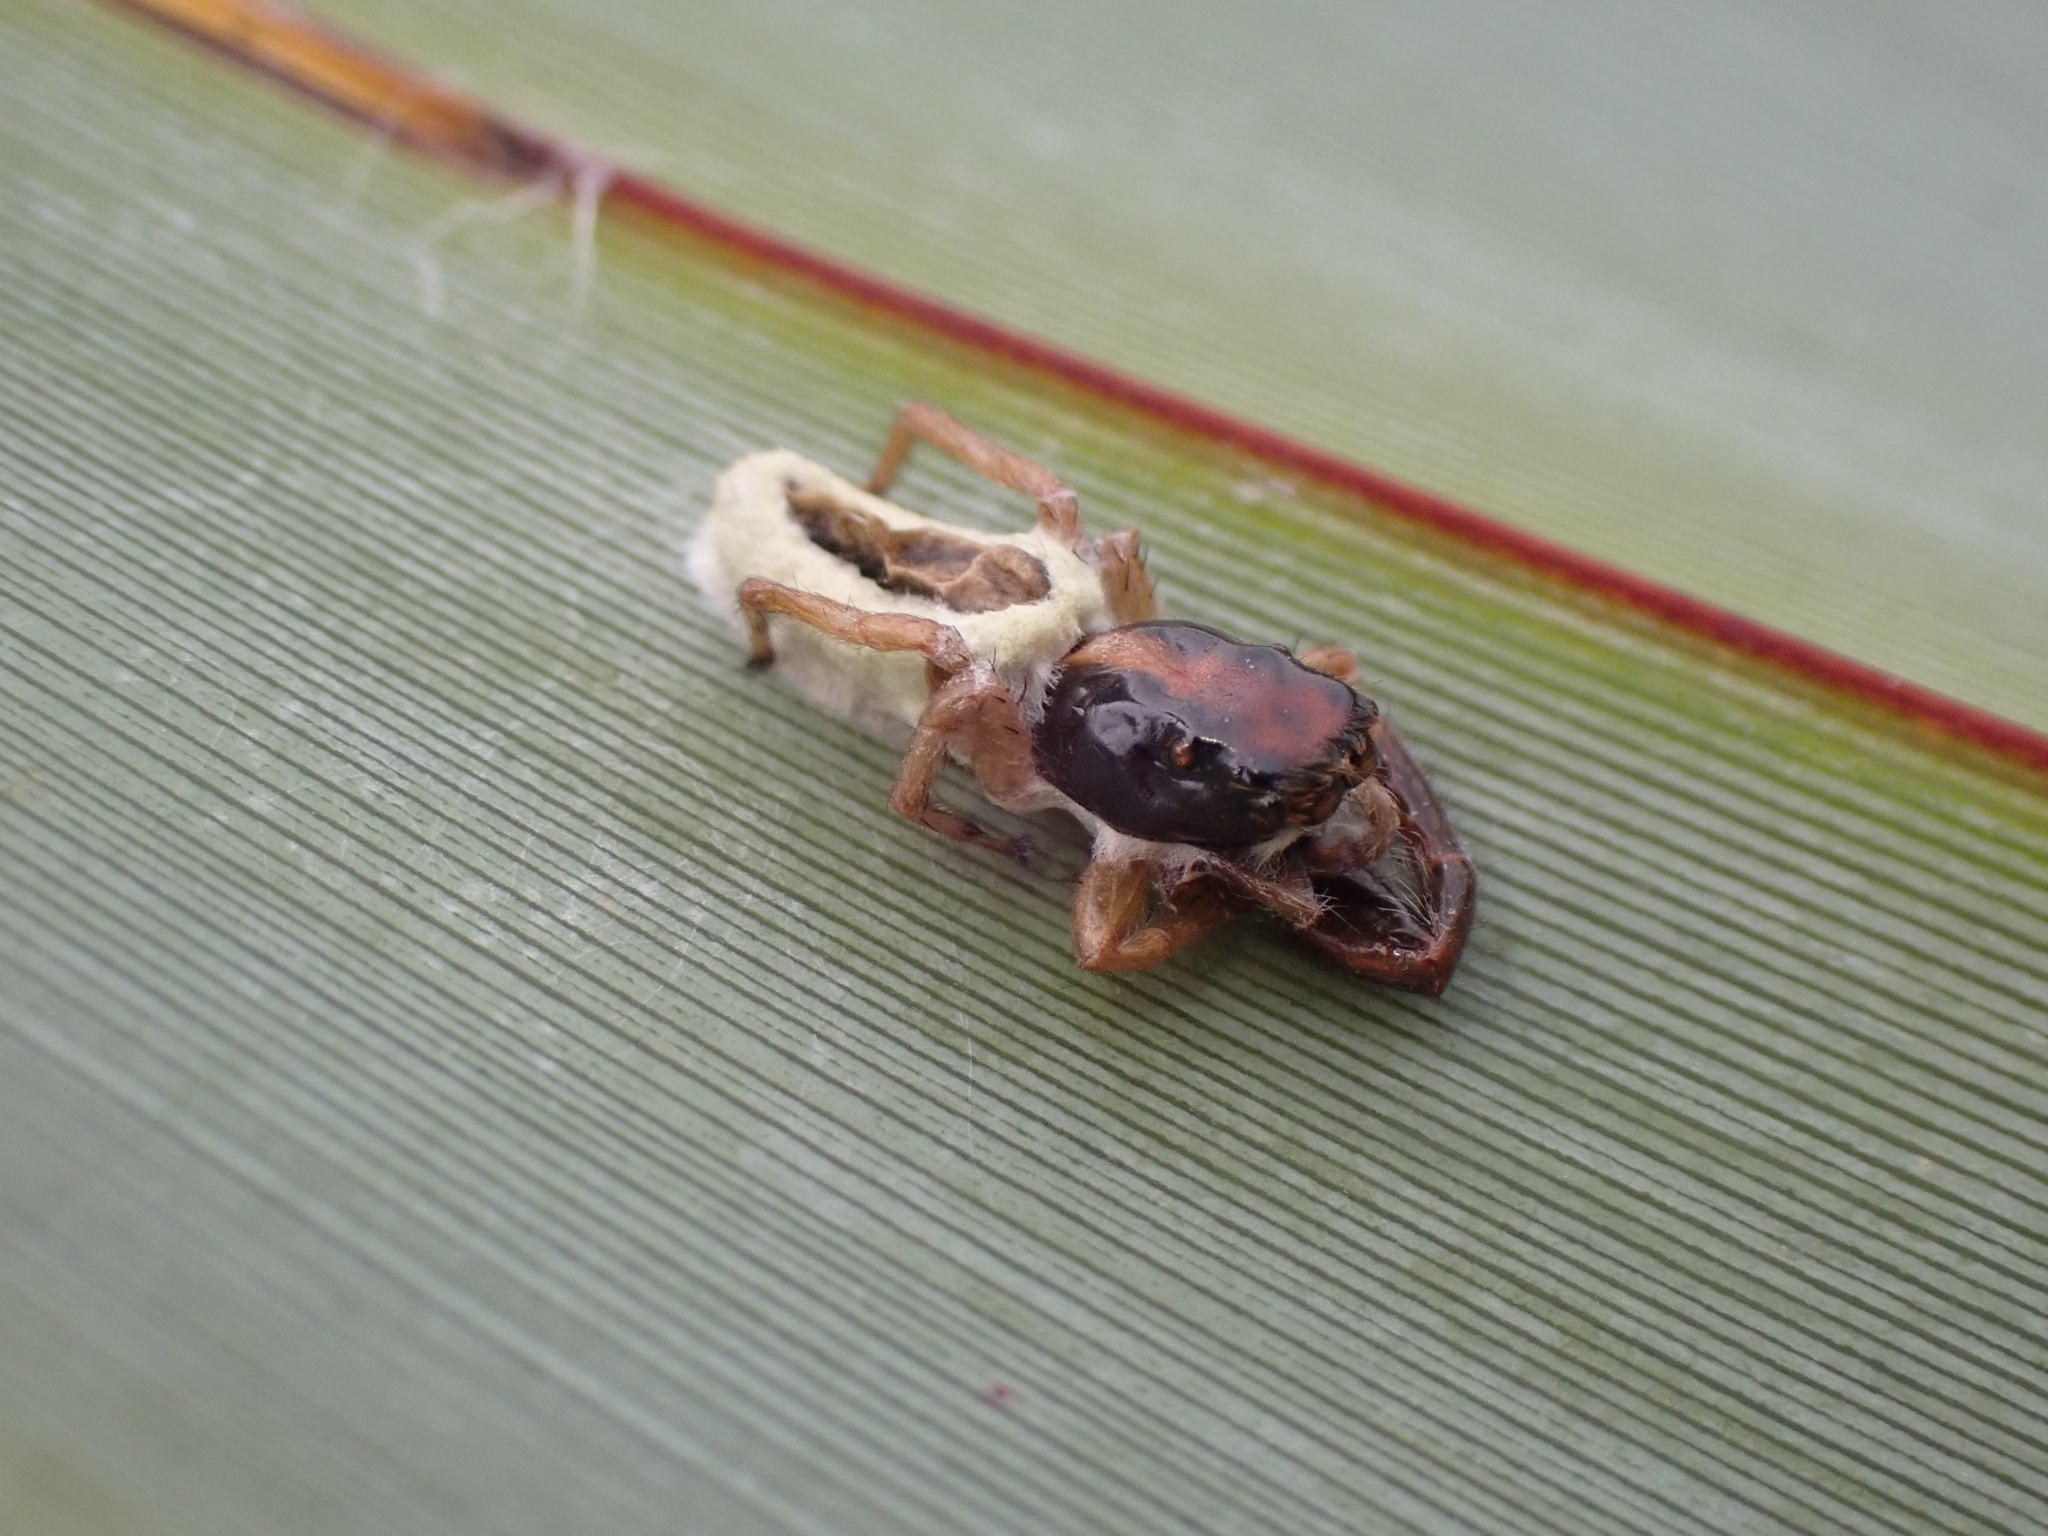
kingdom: Animalia
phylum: Arthropoda
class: Arachnida
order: Araneae
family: Salticidae
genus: Trite
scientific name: Trite planiceps
